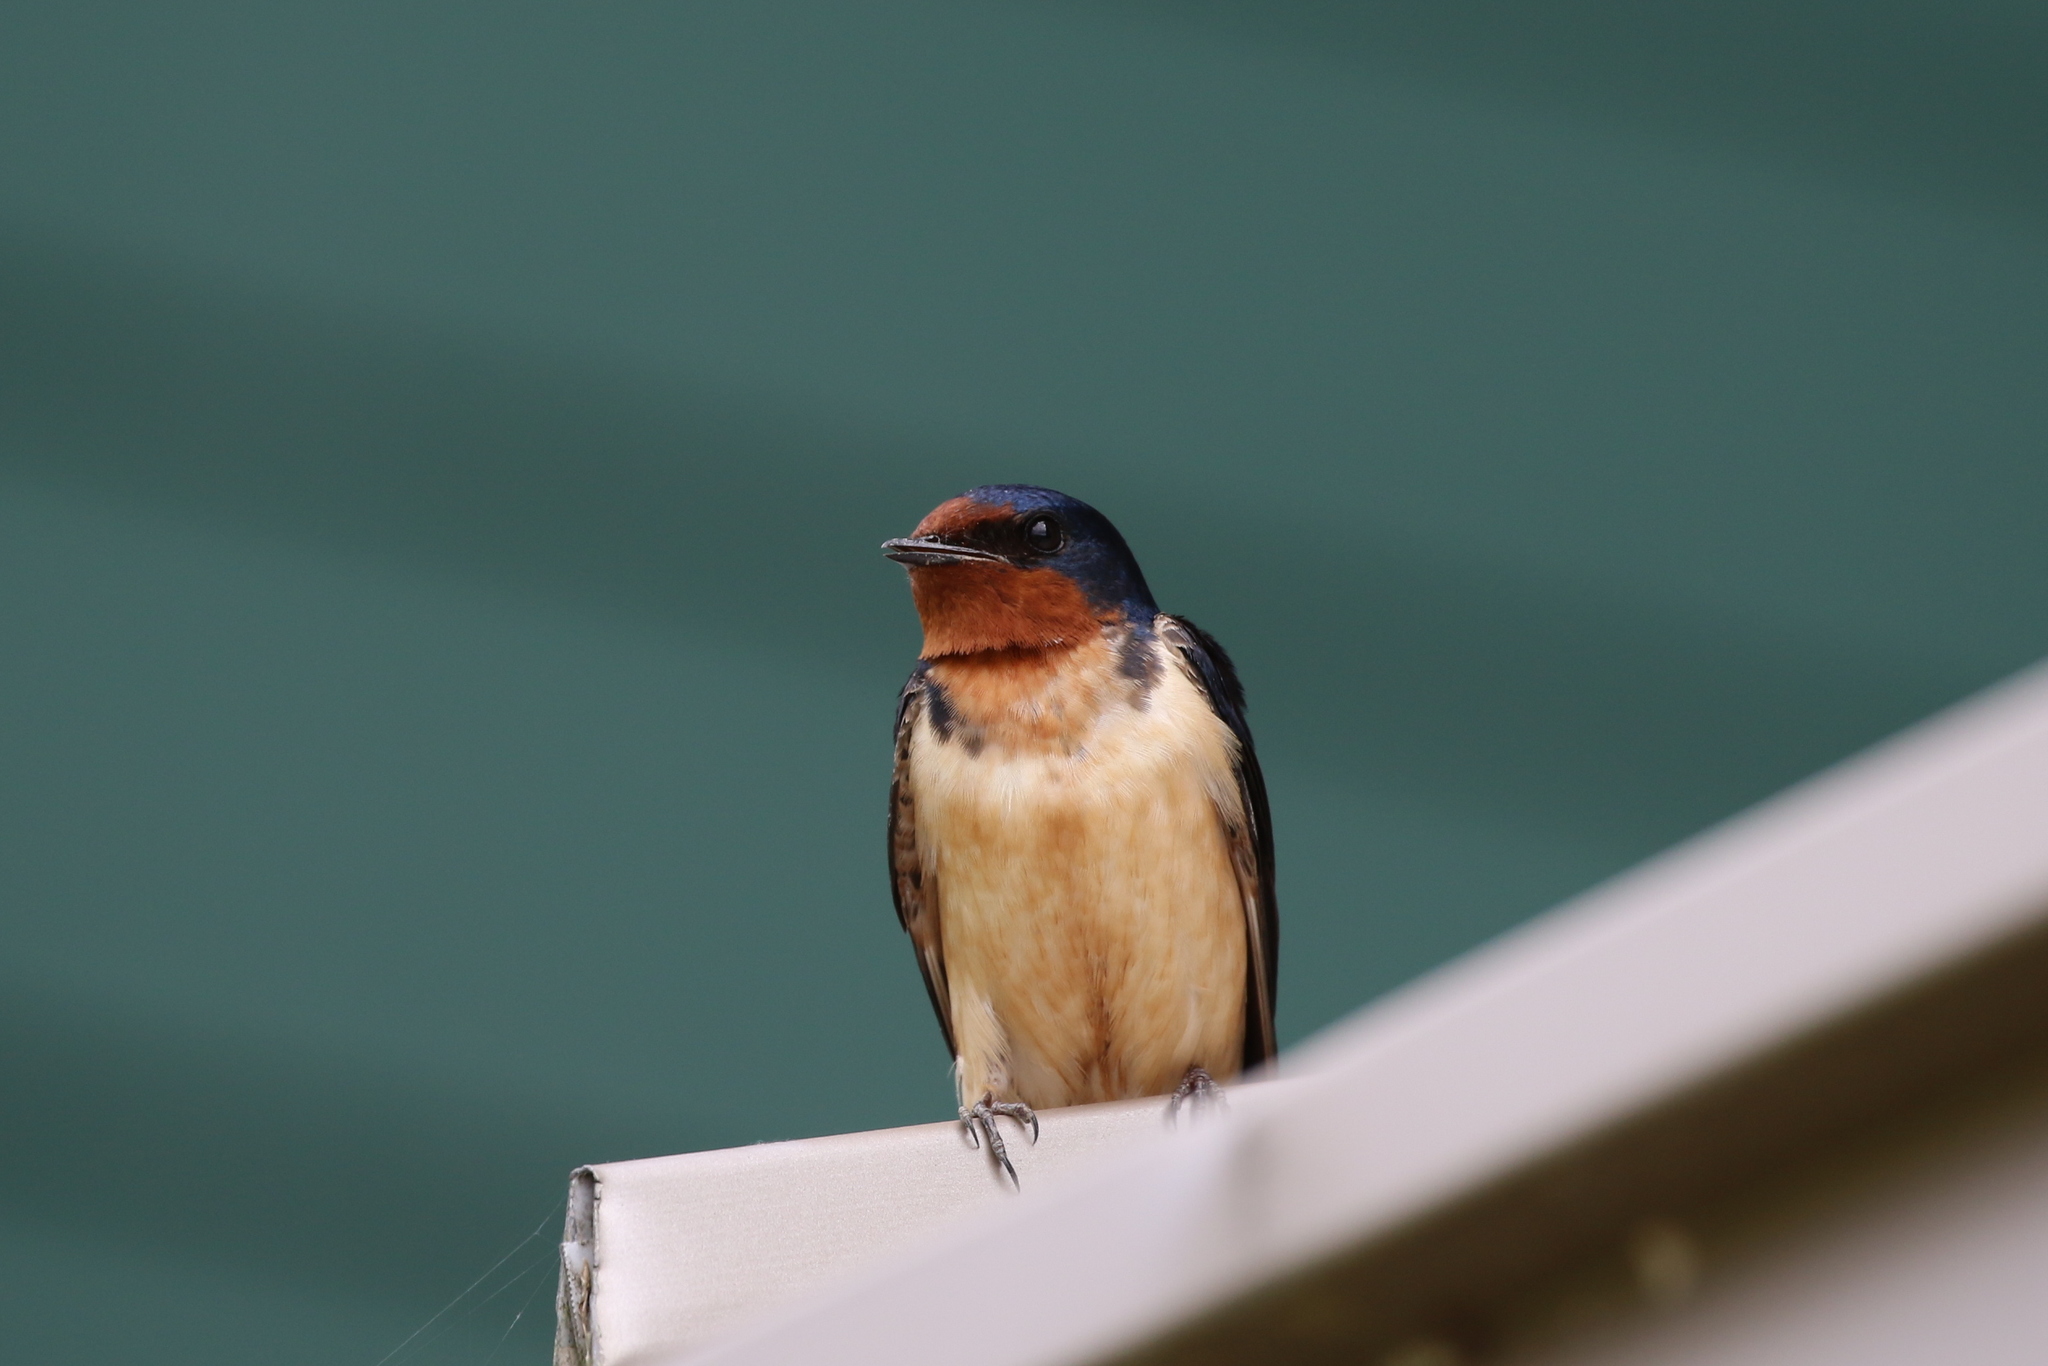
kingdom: Animalia
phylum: Chordata
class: Aves
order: Passeriformes
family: Hirundinidae
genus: Hirundo
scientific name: Hirundo rustica
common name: Barn swallow
